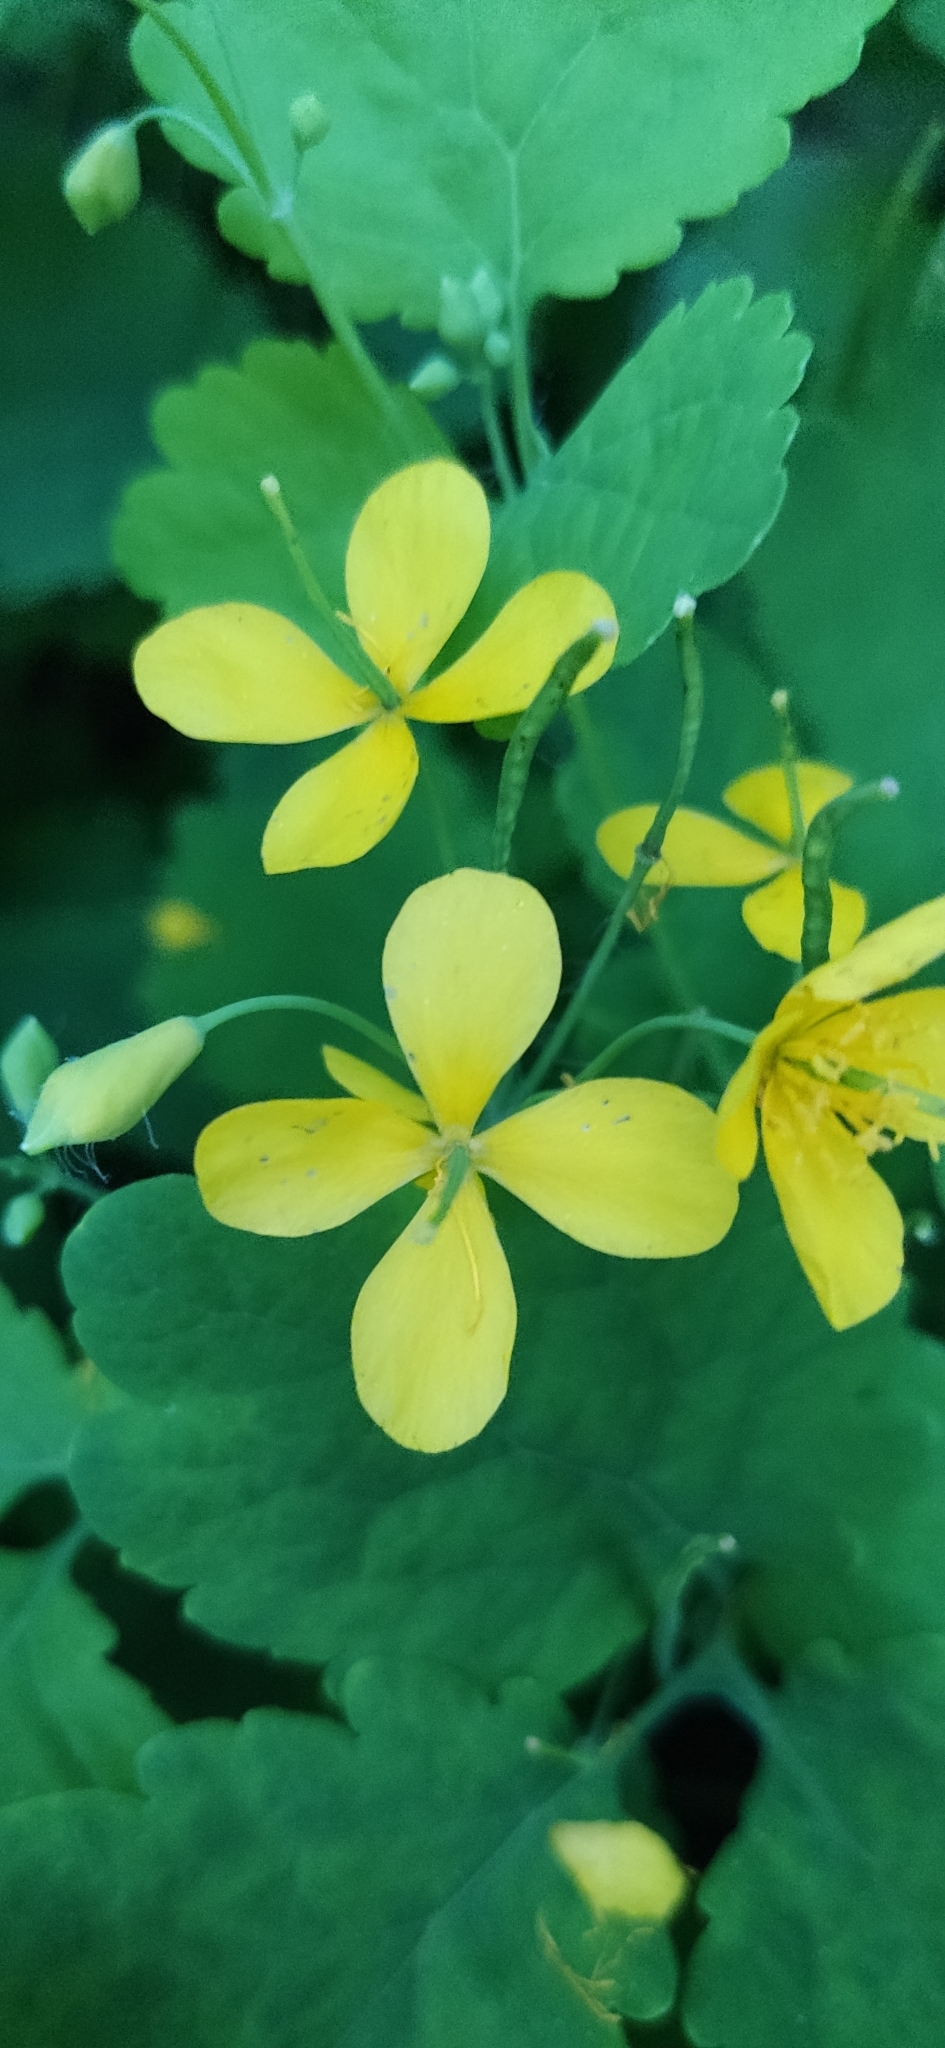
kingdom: Plantae
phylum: Tracheophyta
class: Magnoliopsida
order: Ranunculales
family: Papaveraceae
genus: Chelidonium
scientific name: Chelidonium majus
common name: Greater celandine
